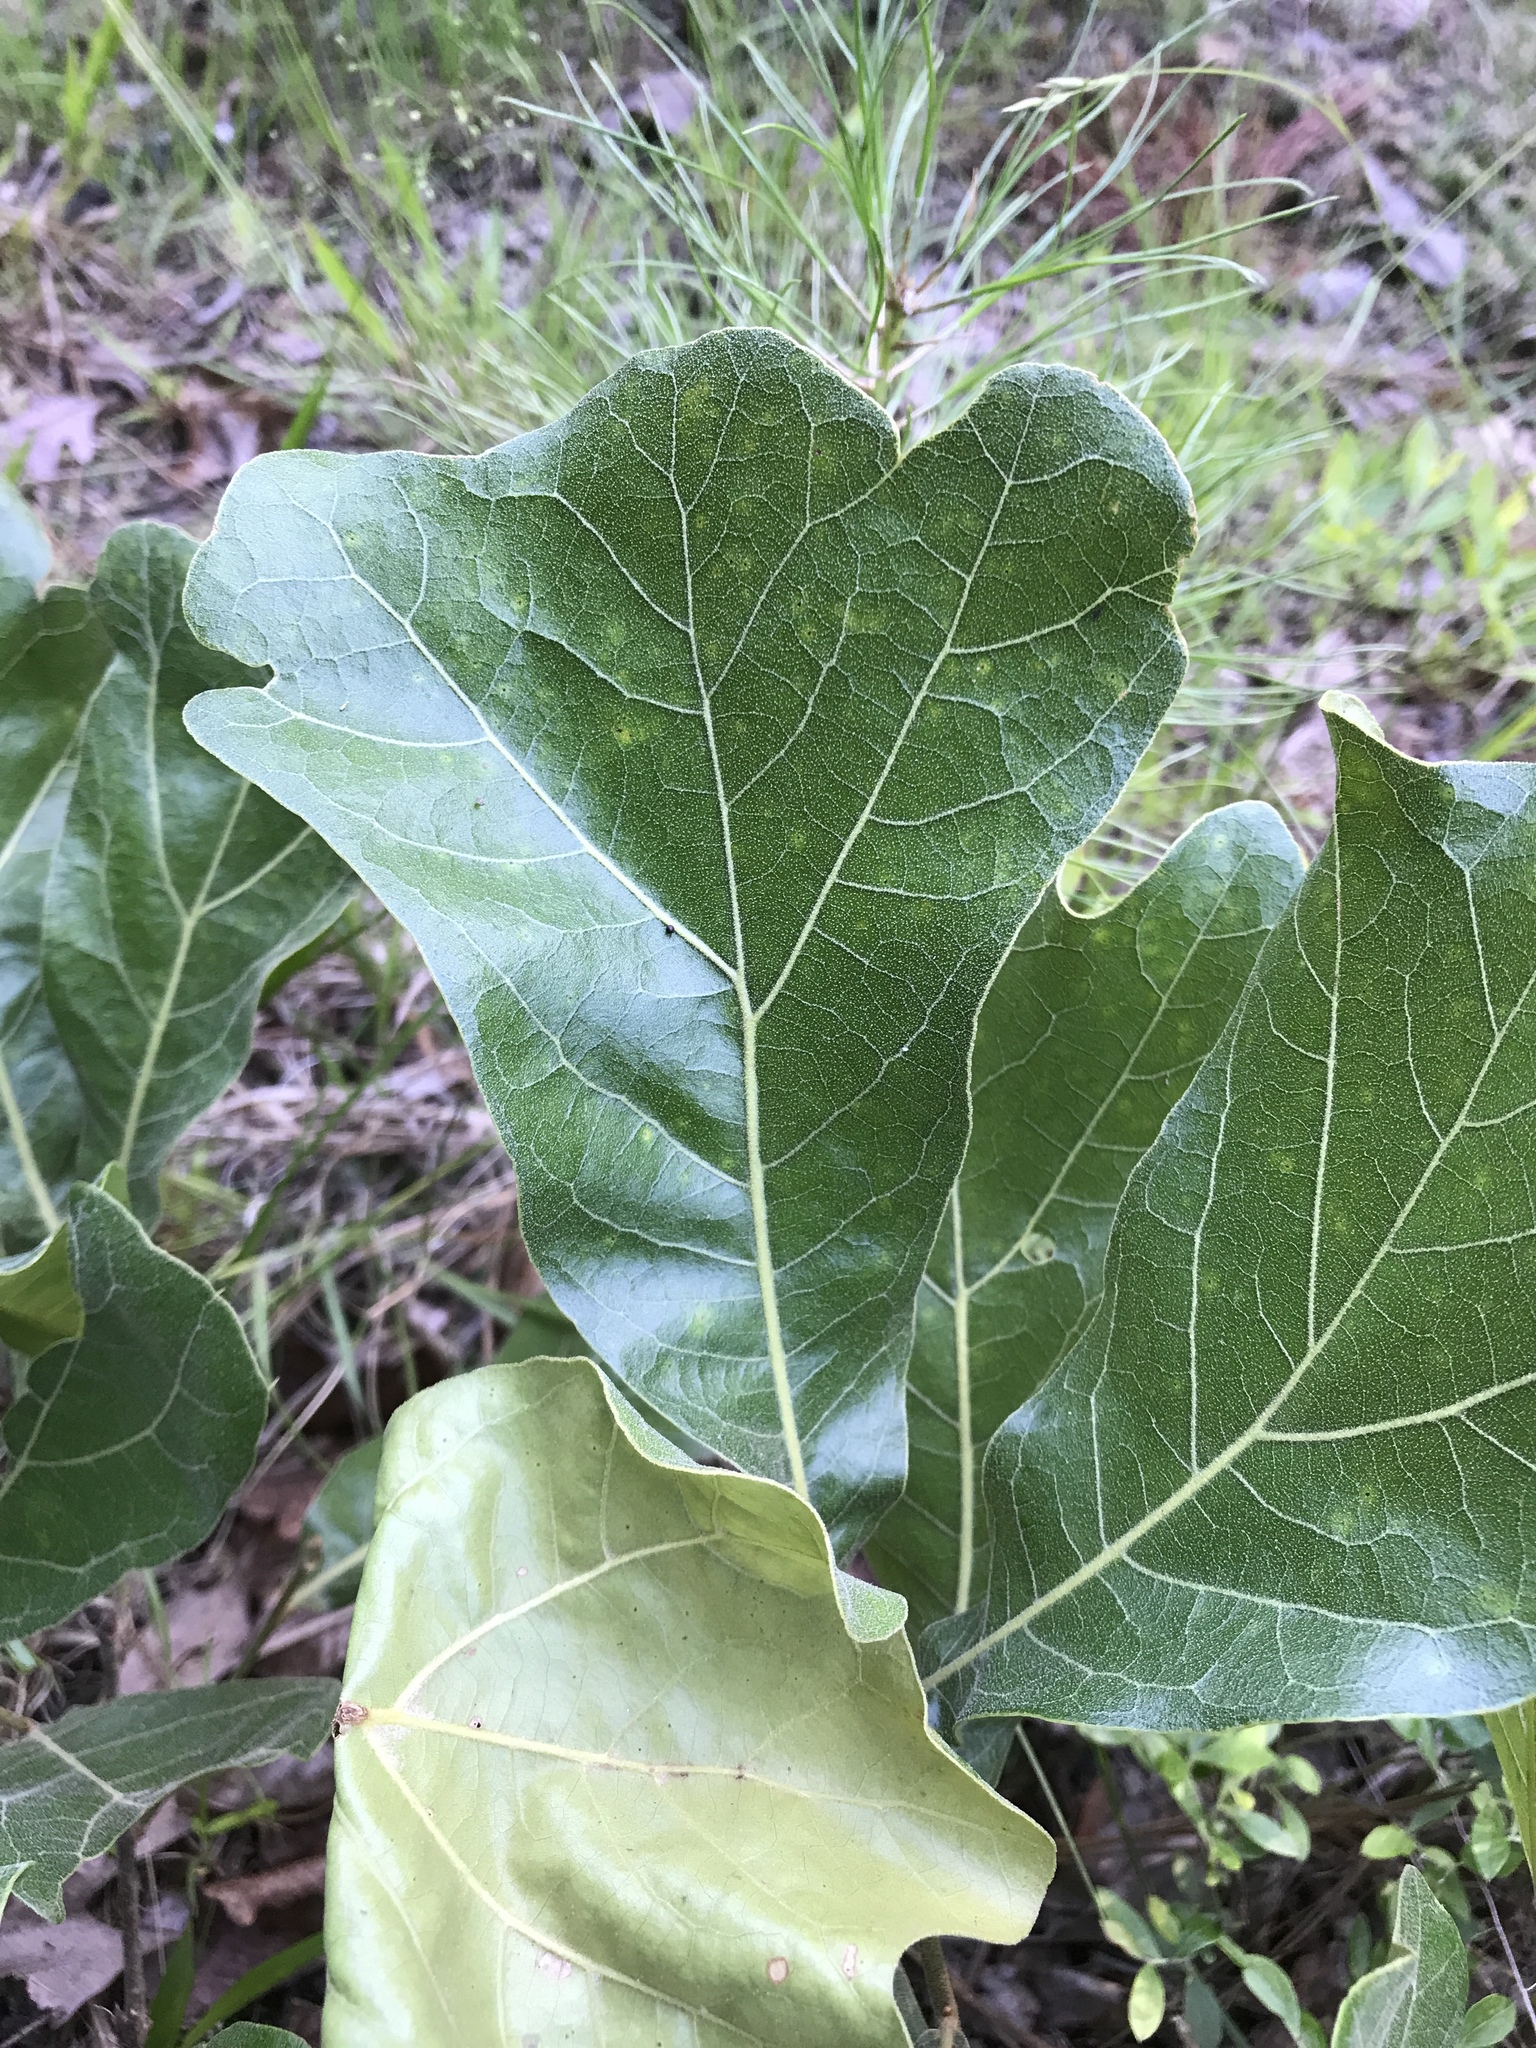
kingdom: Plantae
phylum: Tracheophyta
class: Magnoliopsida
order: Fagales
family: Fagaceae
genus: Quercus
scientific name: Quercus marilandica
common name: Blackjack oak
